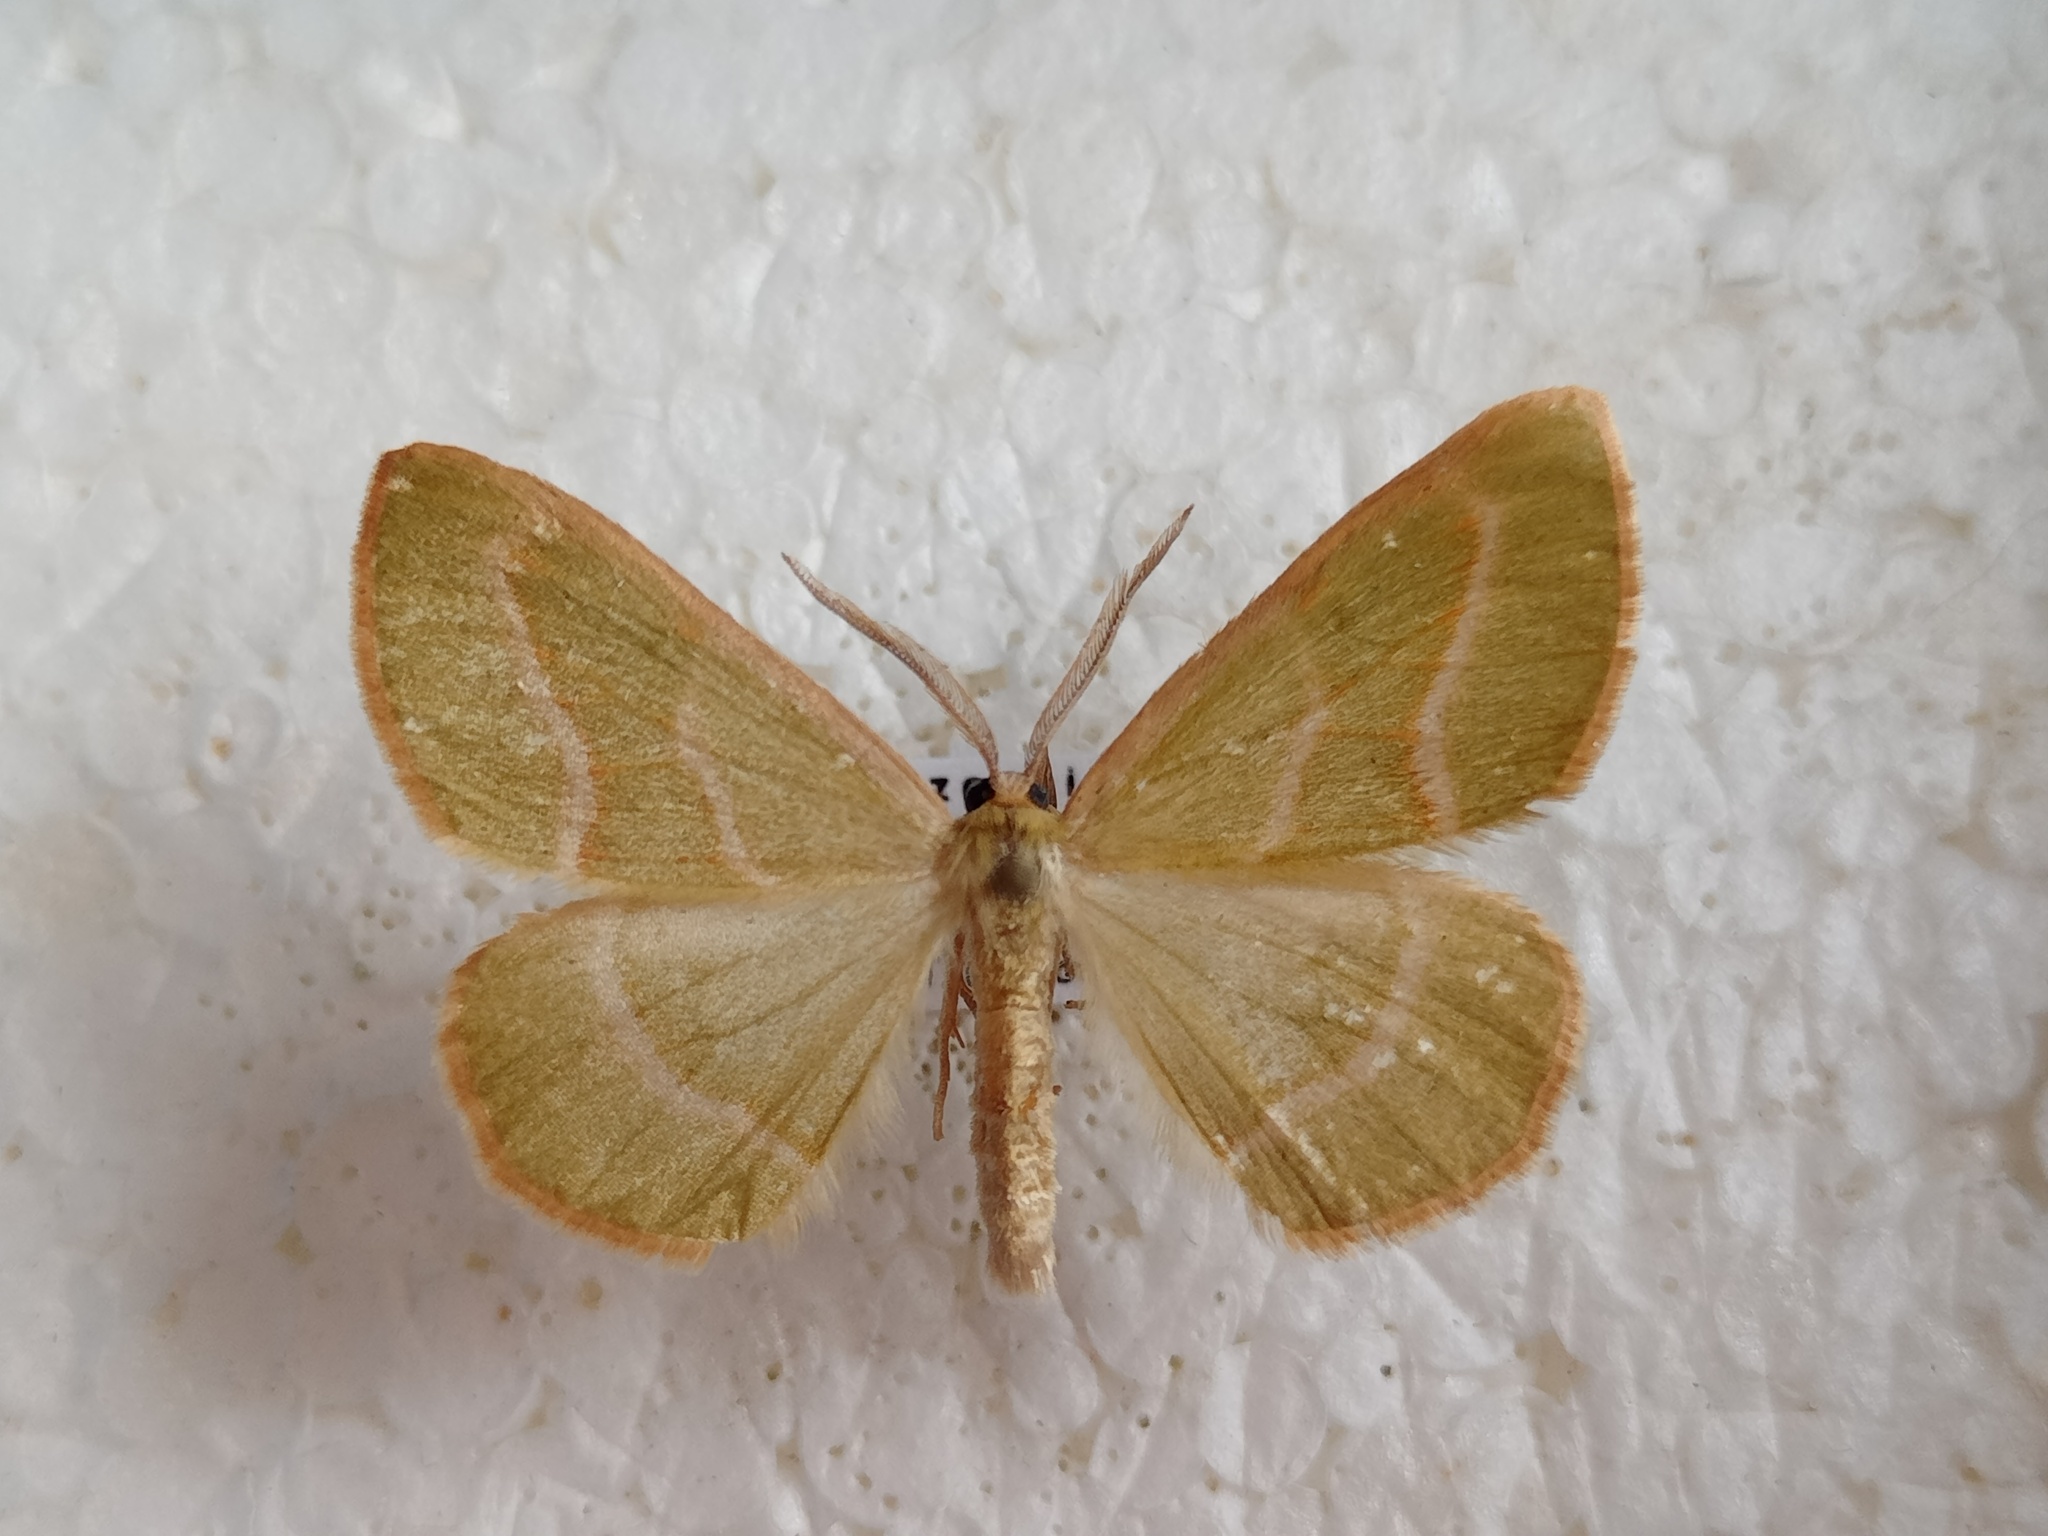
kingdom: Animalia
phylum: Arthropoda
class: Insecta
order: Lepidoptera
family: Geometridae
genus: Hylaea
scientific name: Hylaea fasciaria
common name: Barred red
